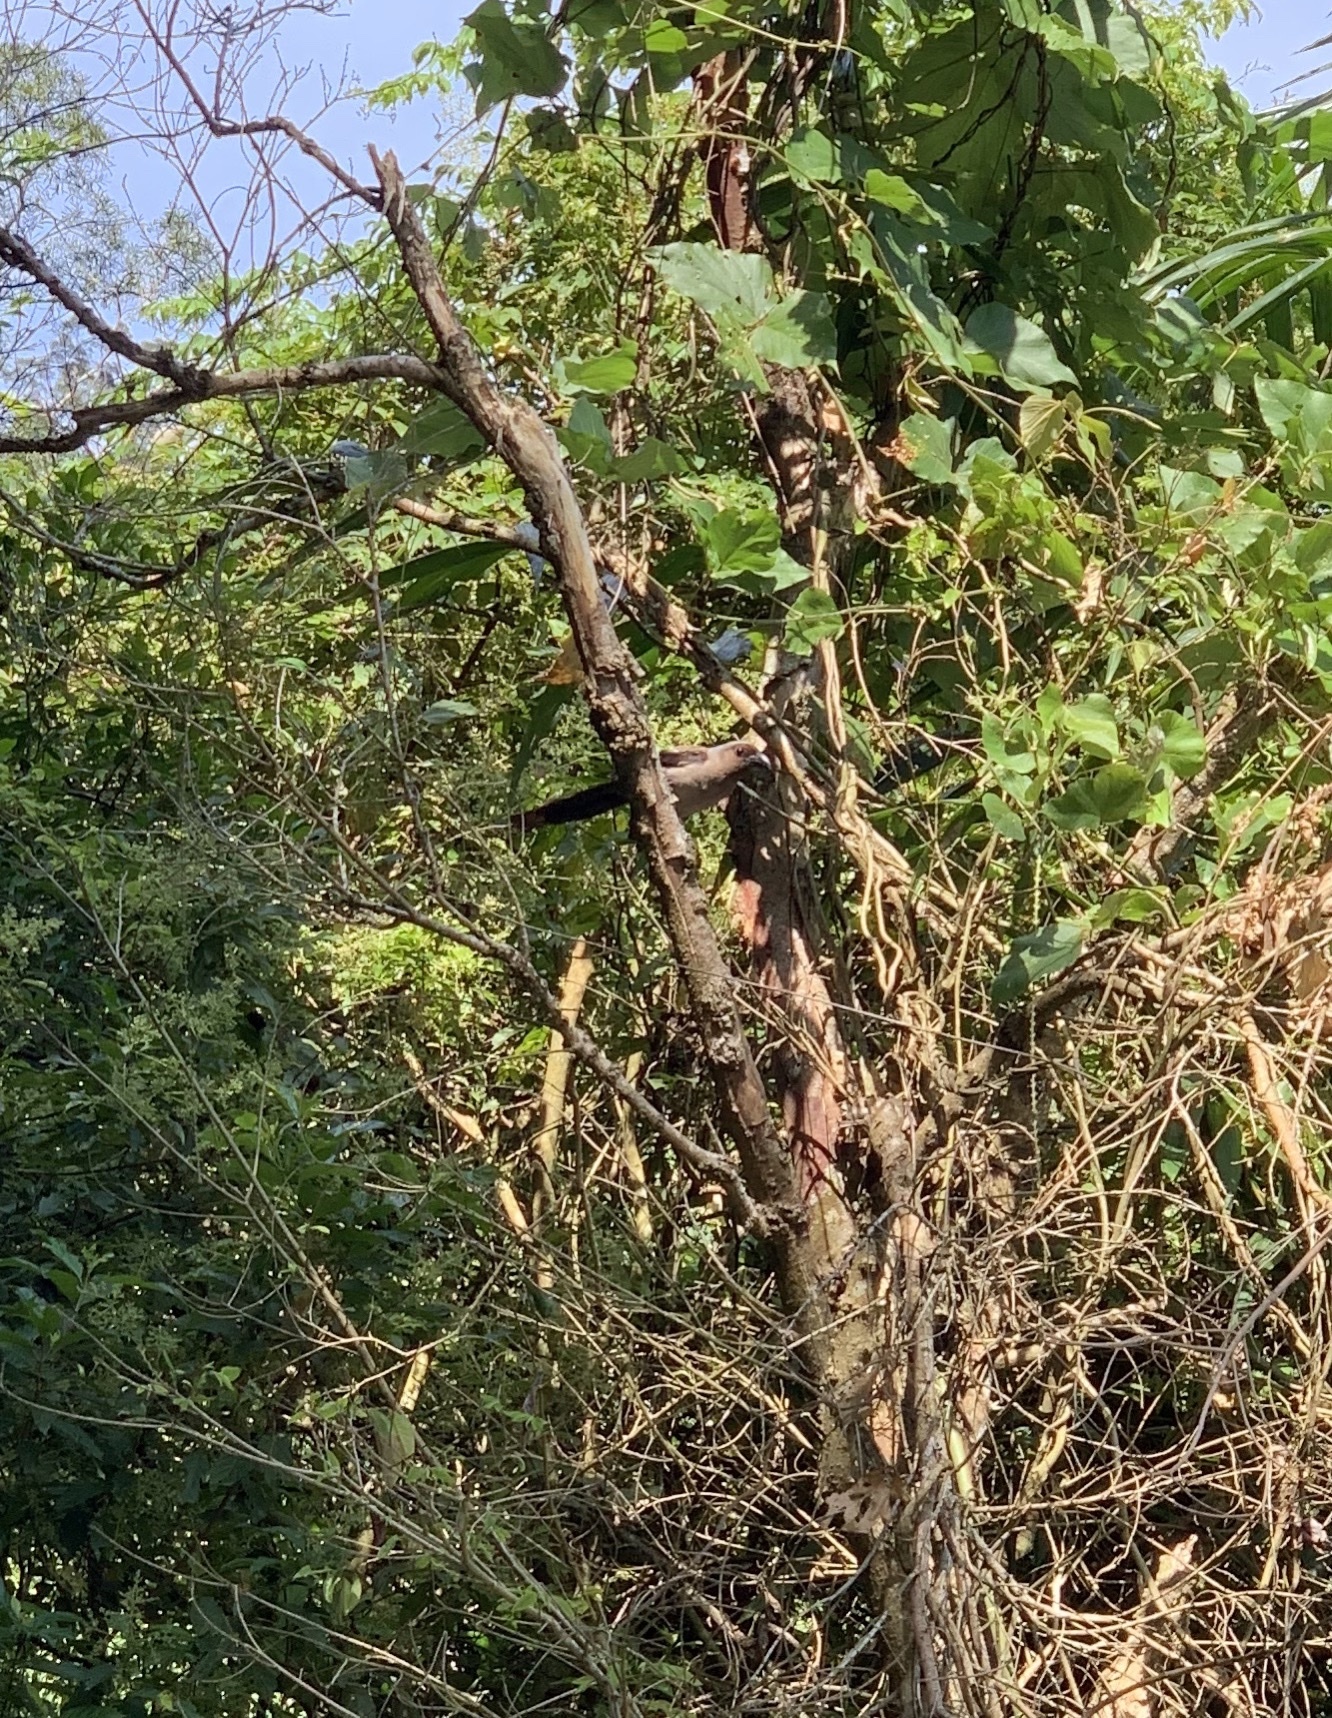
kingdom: Animalia
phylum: Chordata
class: Aves
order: Passeriformes
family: Corvidae
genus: Dendrocitta
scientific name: Dendrocitta formosae
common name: Grey treepie
